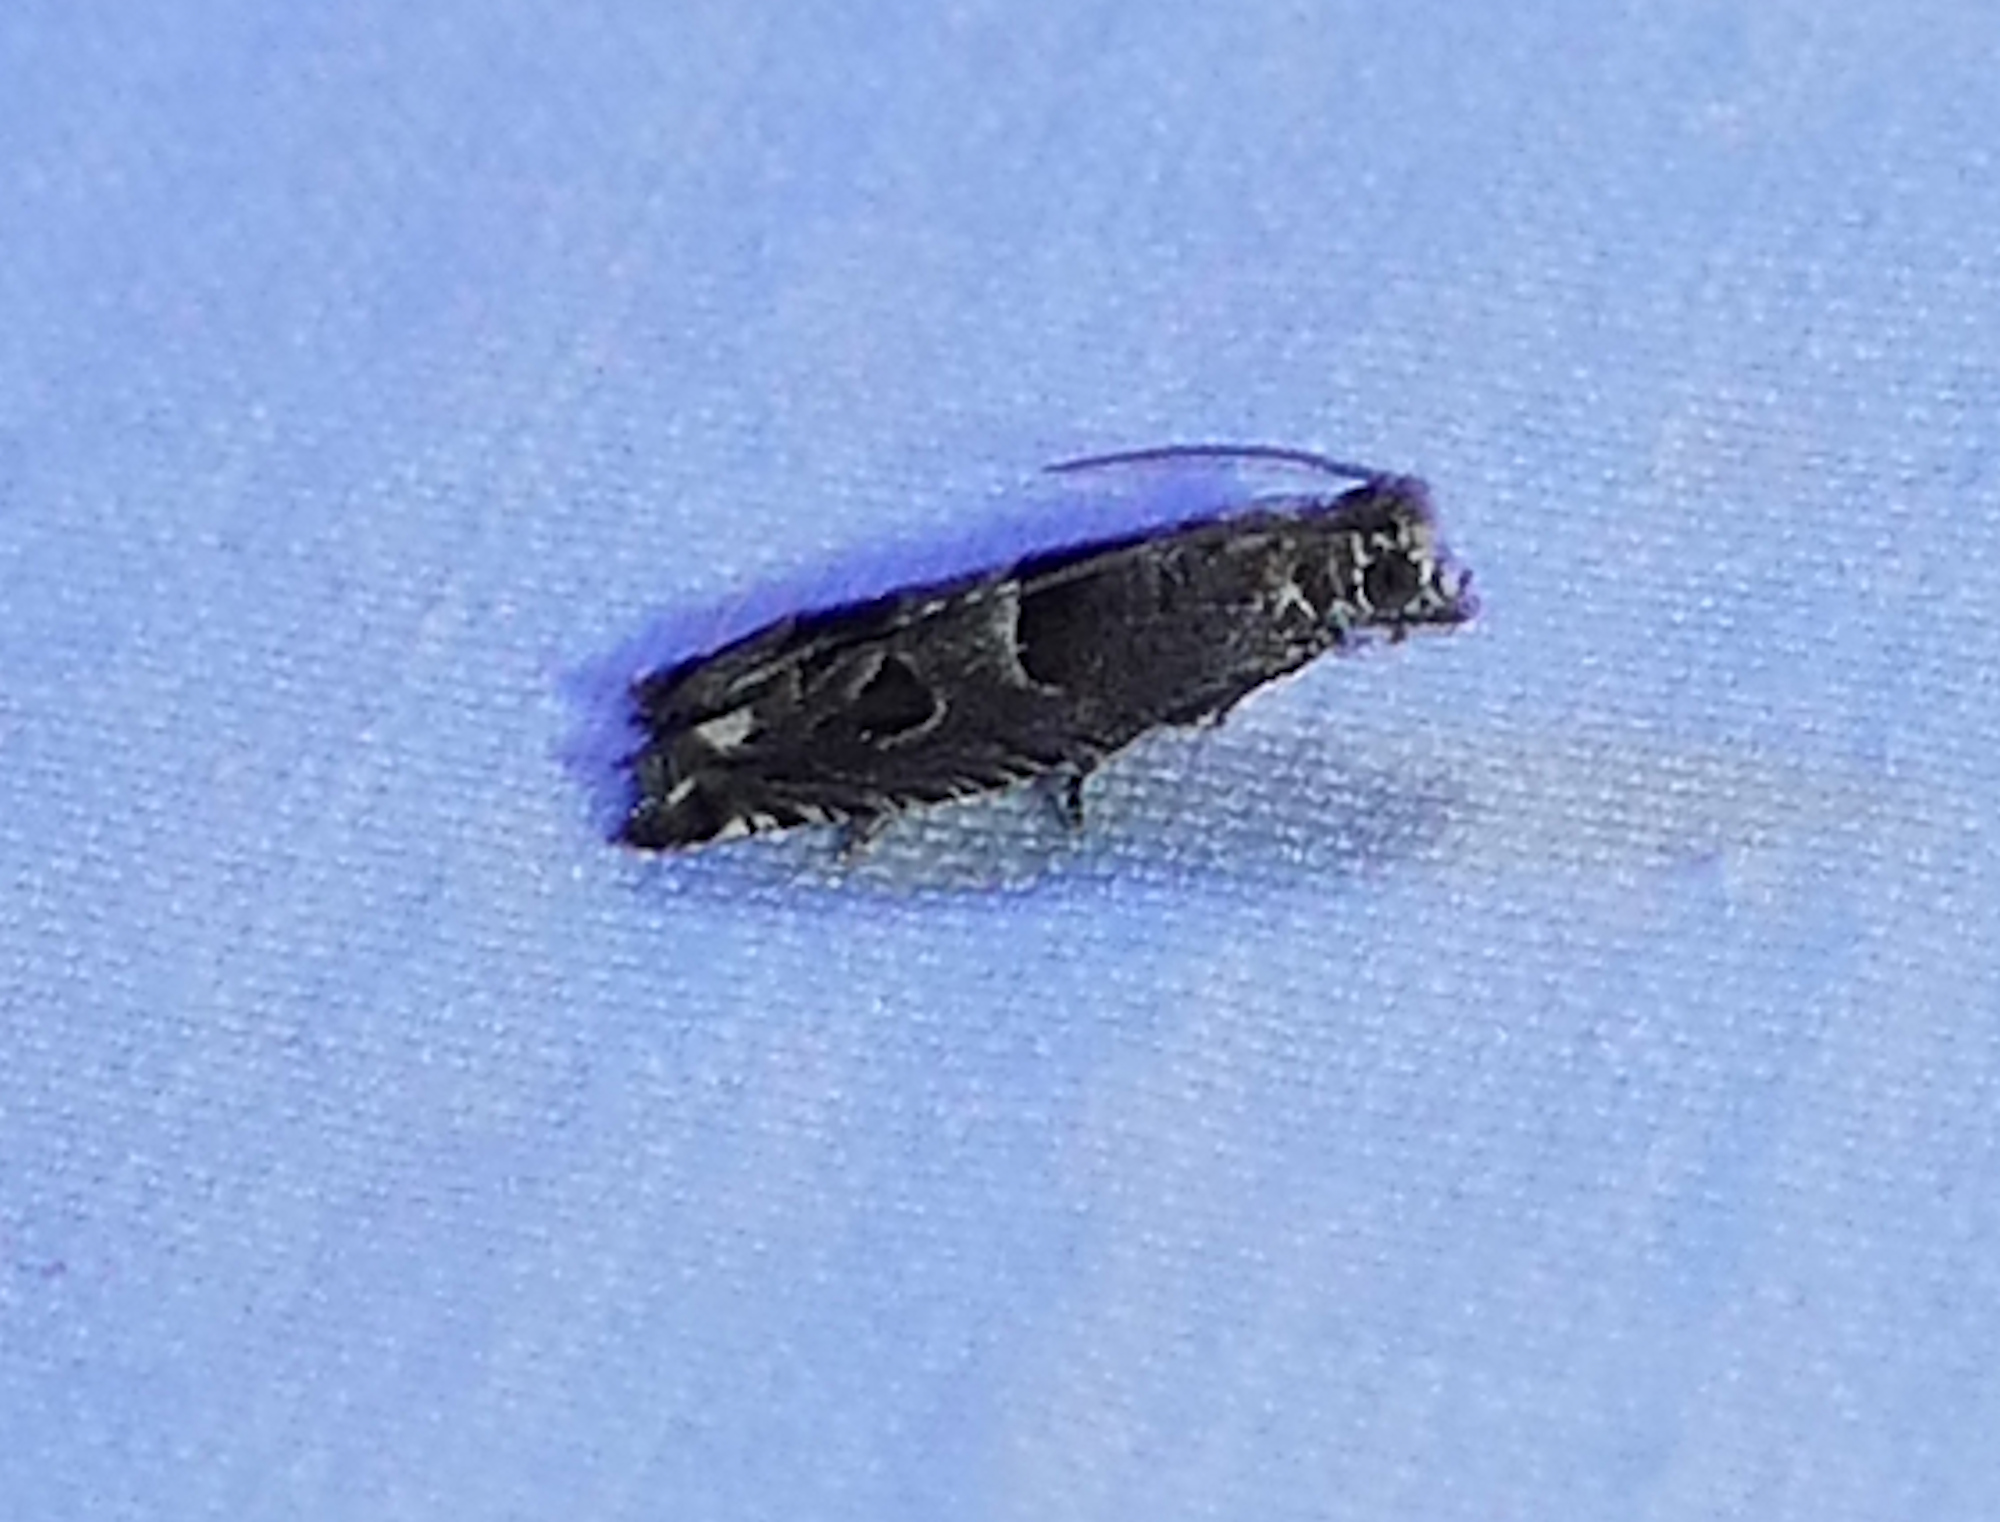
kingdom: Animalia
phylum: Arthropoda
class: Insecta
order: Lepidoptera
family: Tortricidae
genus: Sonia
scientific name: Sonia constrictana
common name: Constricted sonia moth
